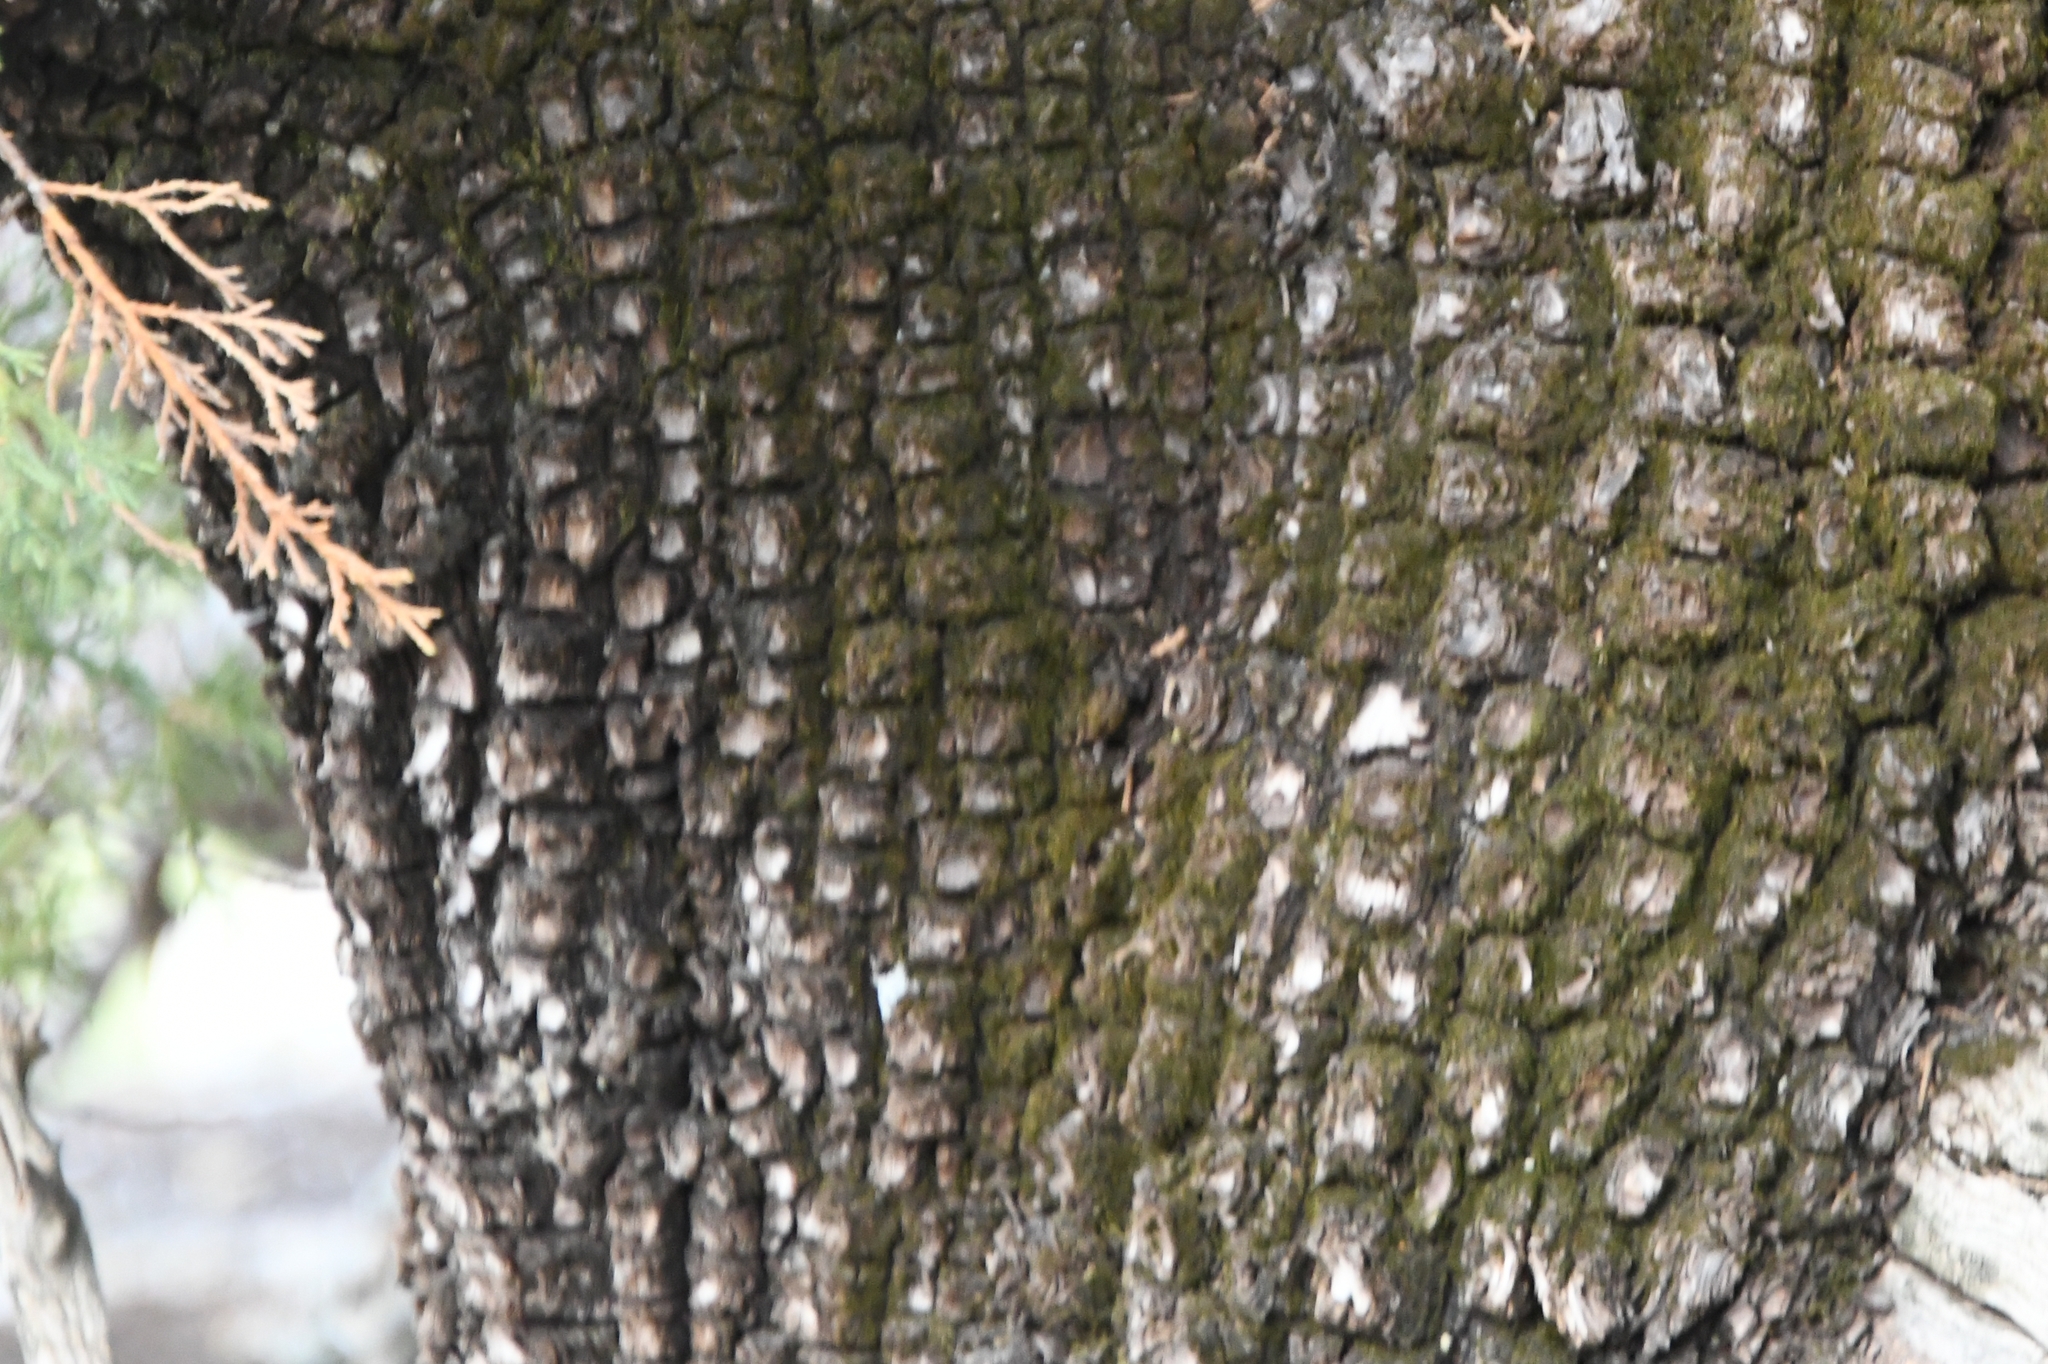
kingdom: Plantae
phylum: Tracheophyta
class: Pinopsida
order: Pinales
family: Cupressaceae
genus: Juniperus
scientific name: Juniperus deppeana
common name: Alligator juniper
